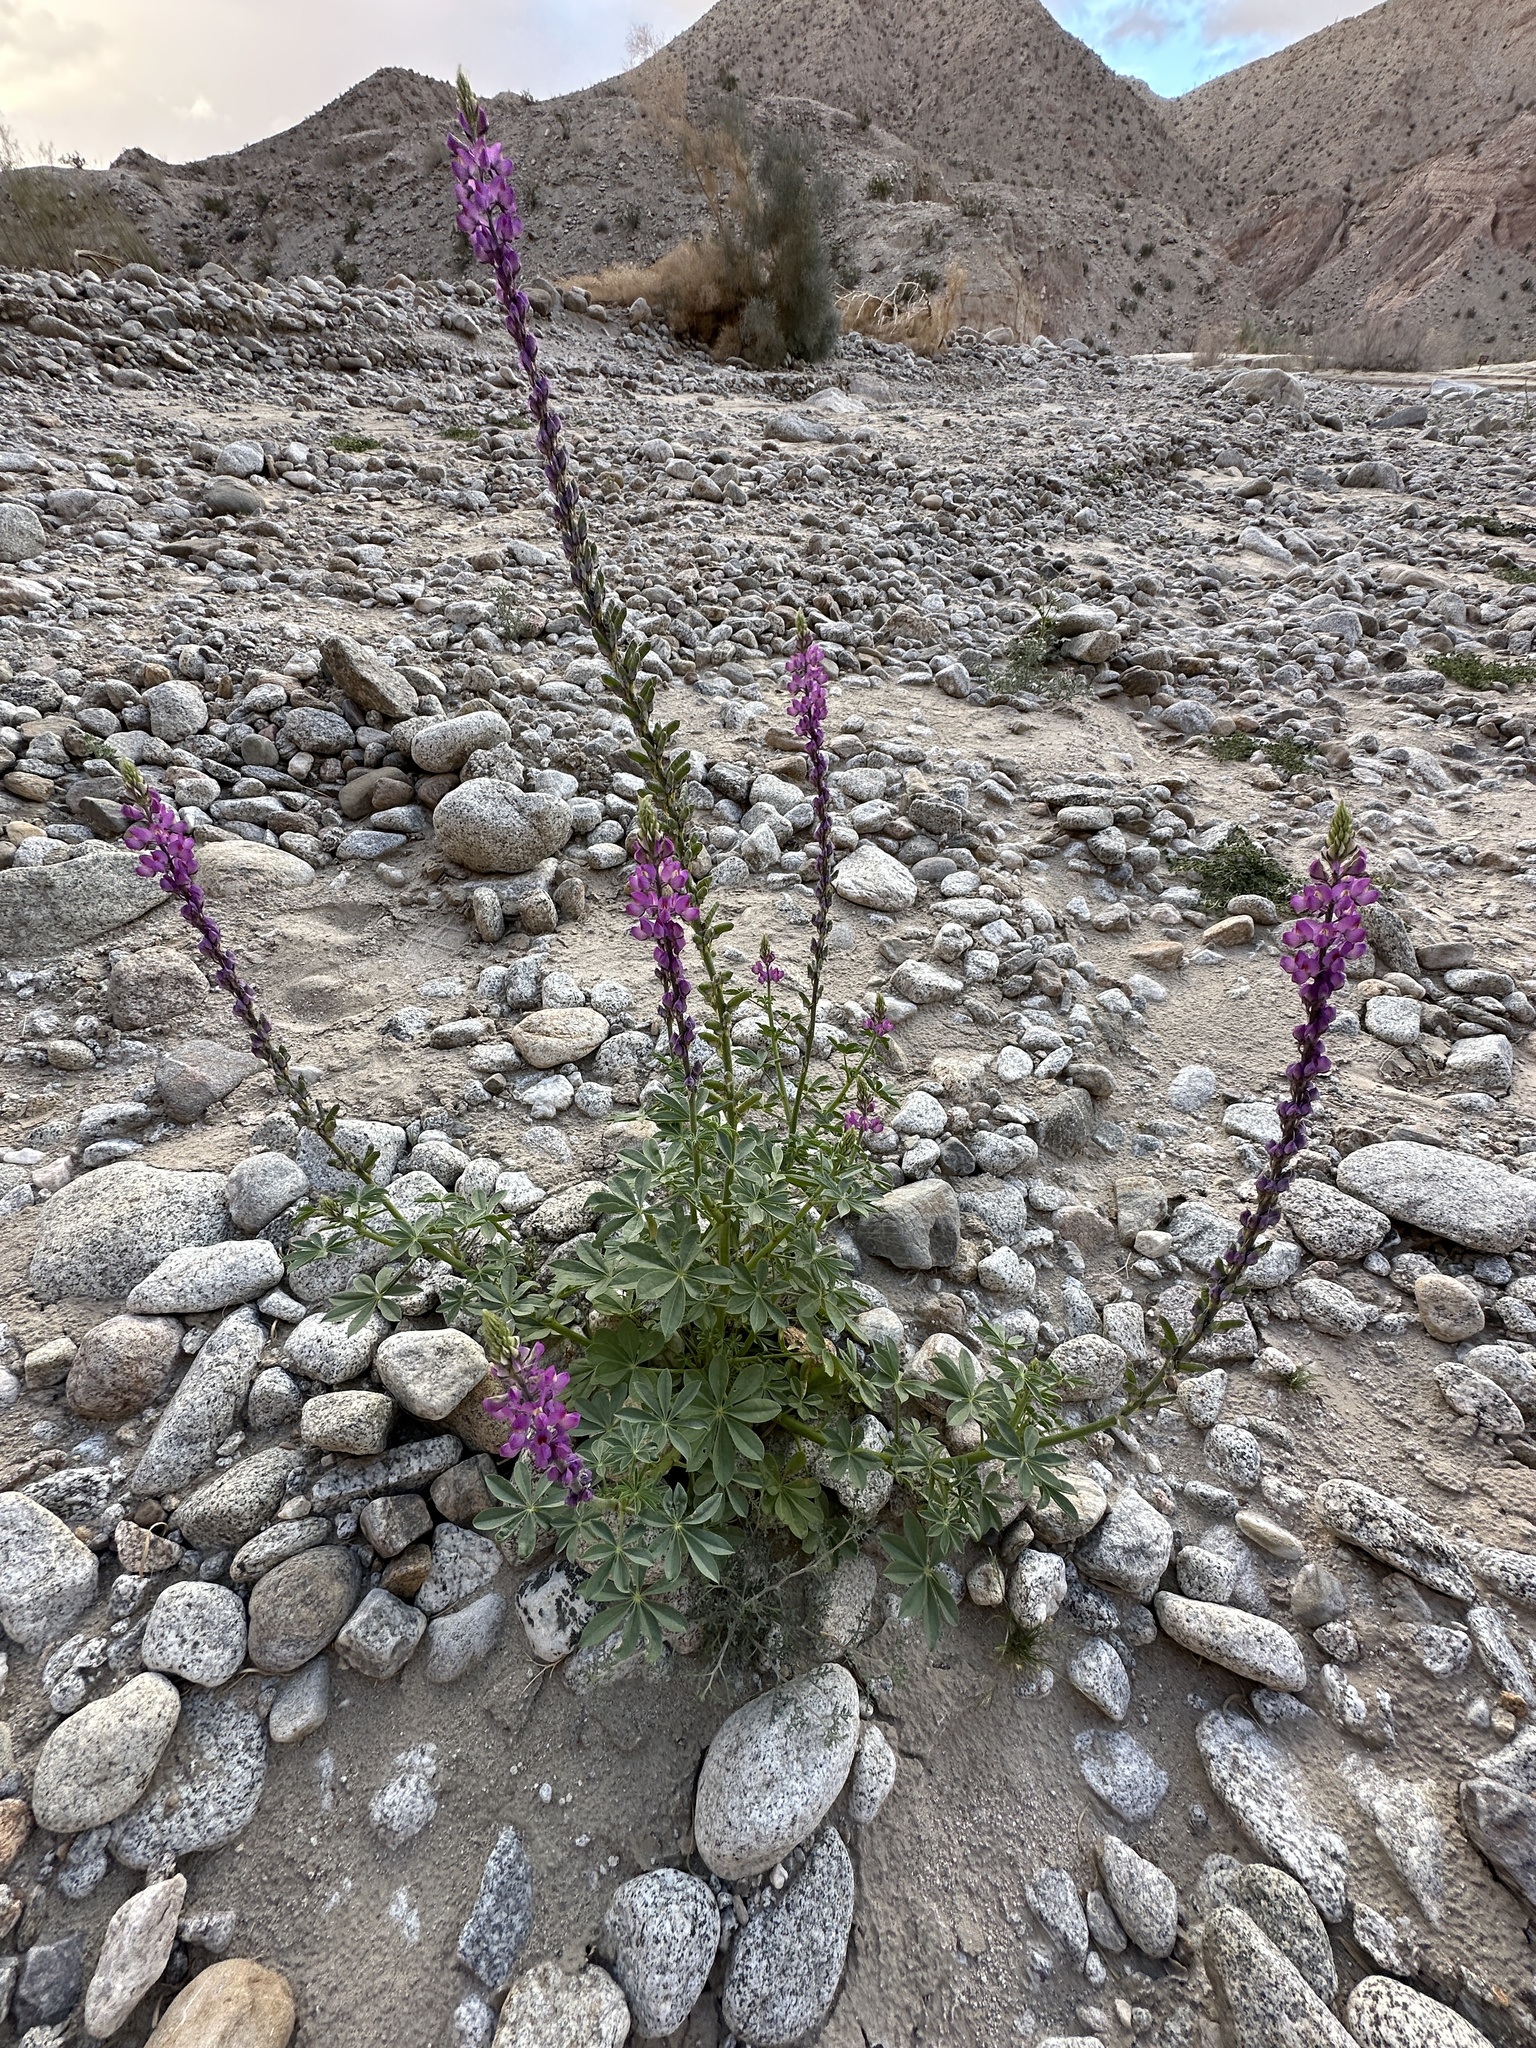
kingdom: Plantae
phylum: Tracheophyta
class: Magnoliopsida
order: Fabales
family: Fabaceae
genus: Lupinus
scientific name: Lupinus arizonicus
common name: Arizona lupine
